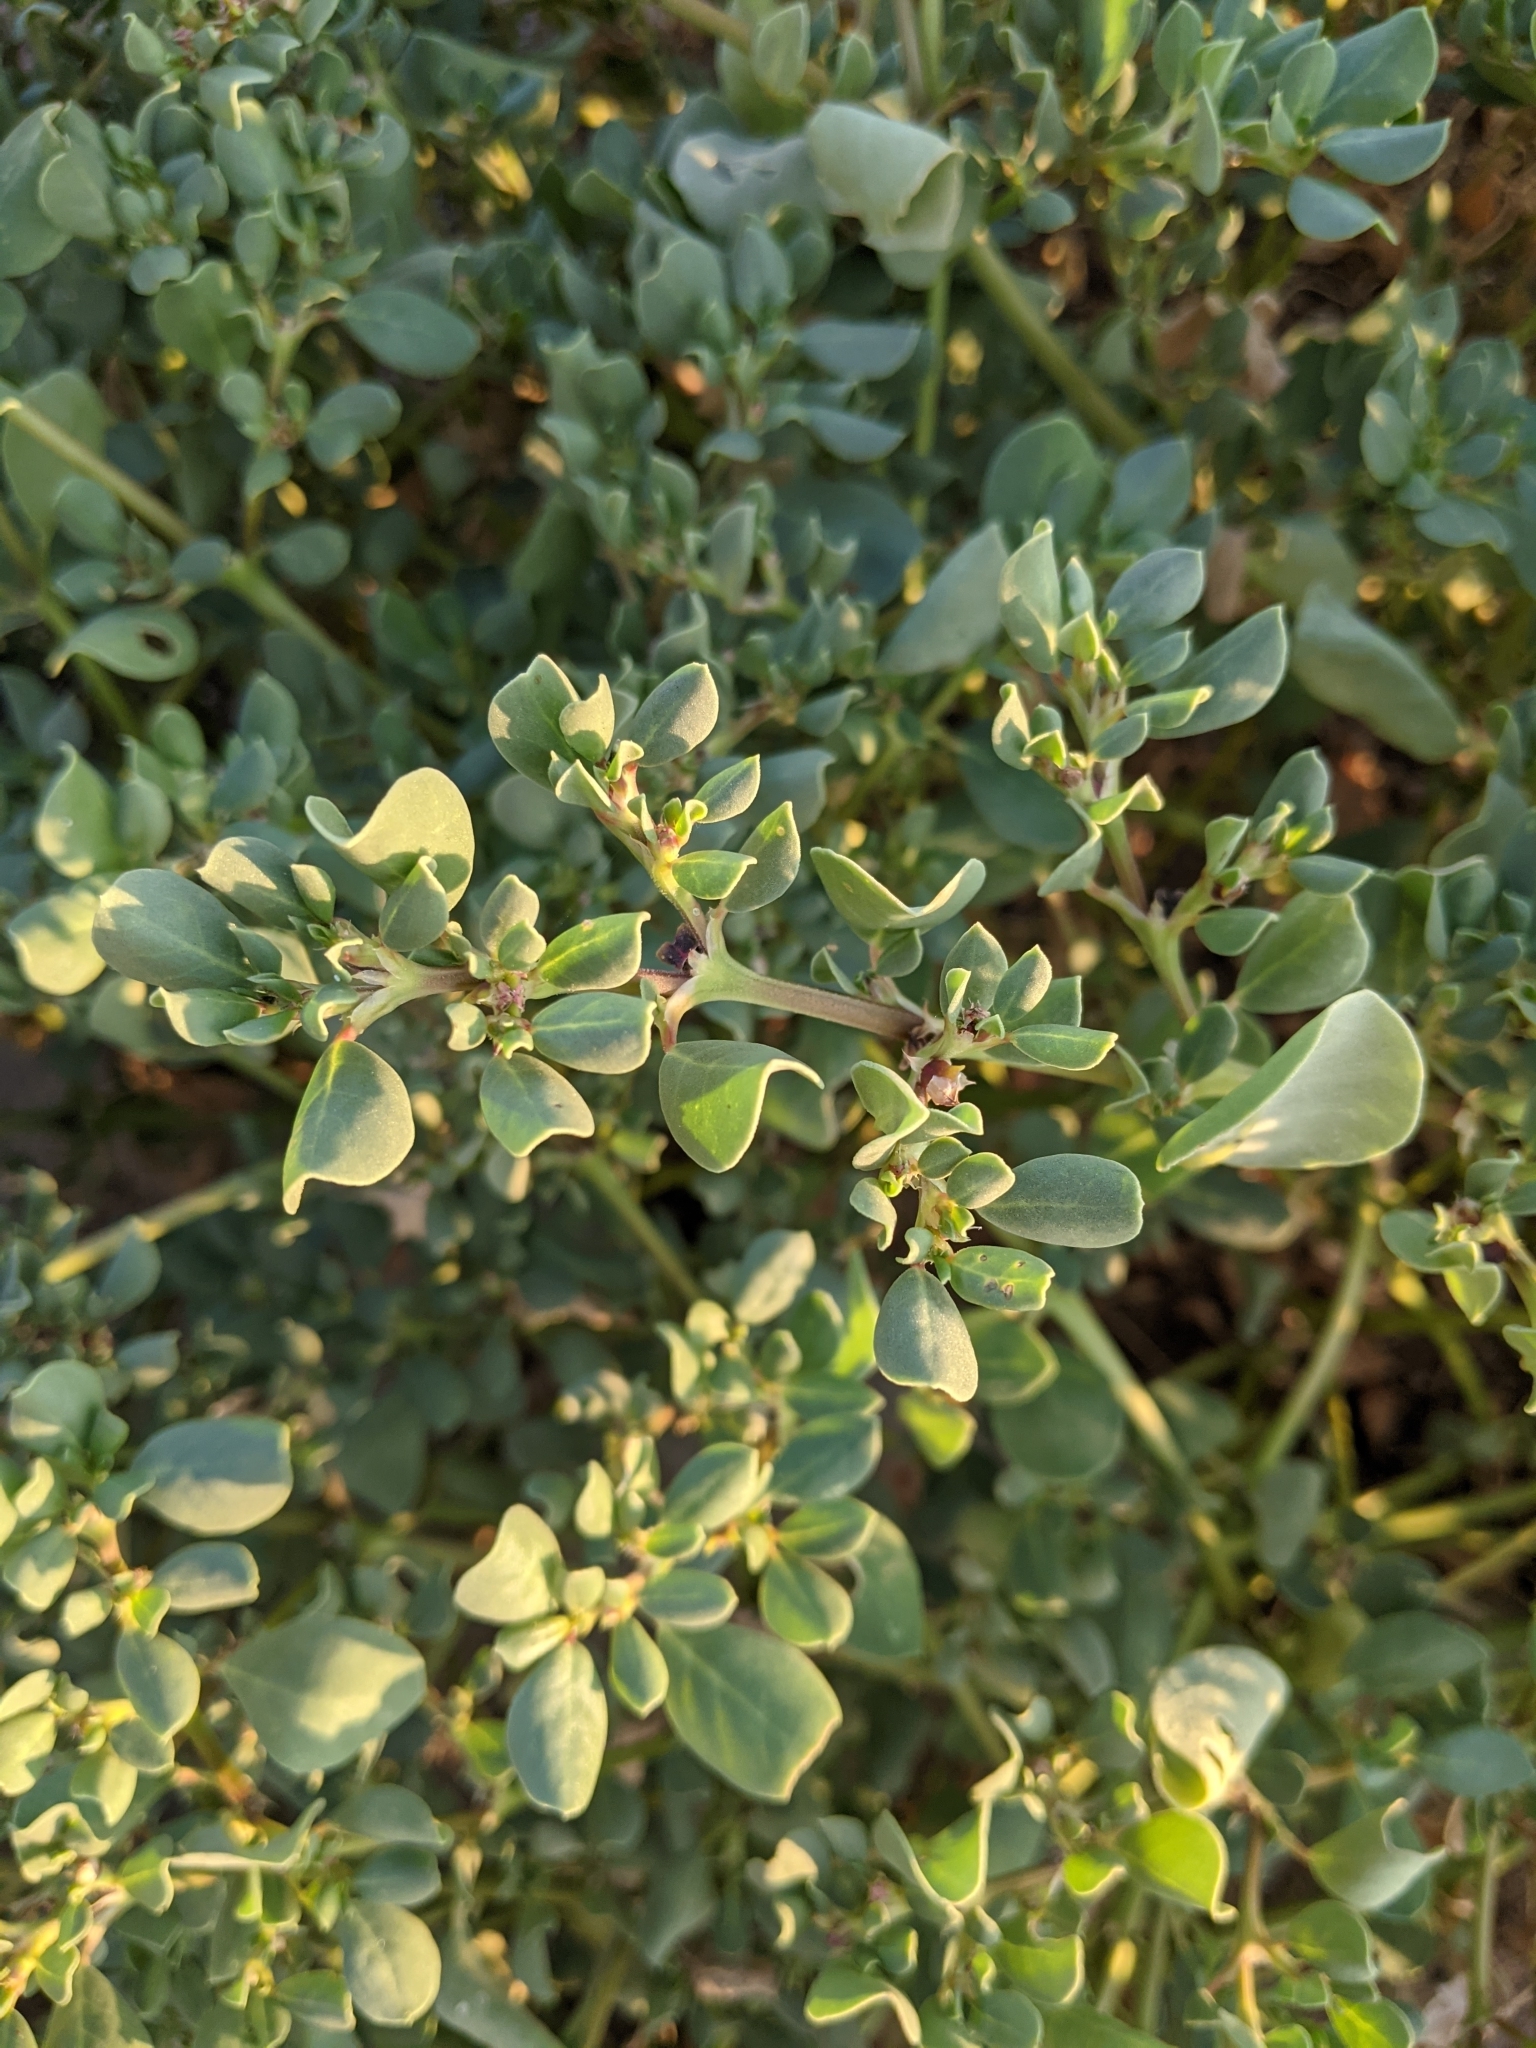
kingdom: Plantae
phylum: Tracheophyta
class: Magnoliopsida
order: Caryophyllales
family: Aizoaceae
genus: Trianthema
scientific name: Trianthema portulacastrum
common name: Desert horsepurslane
